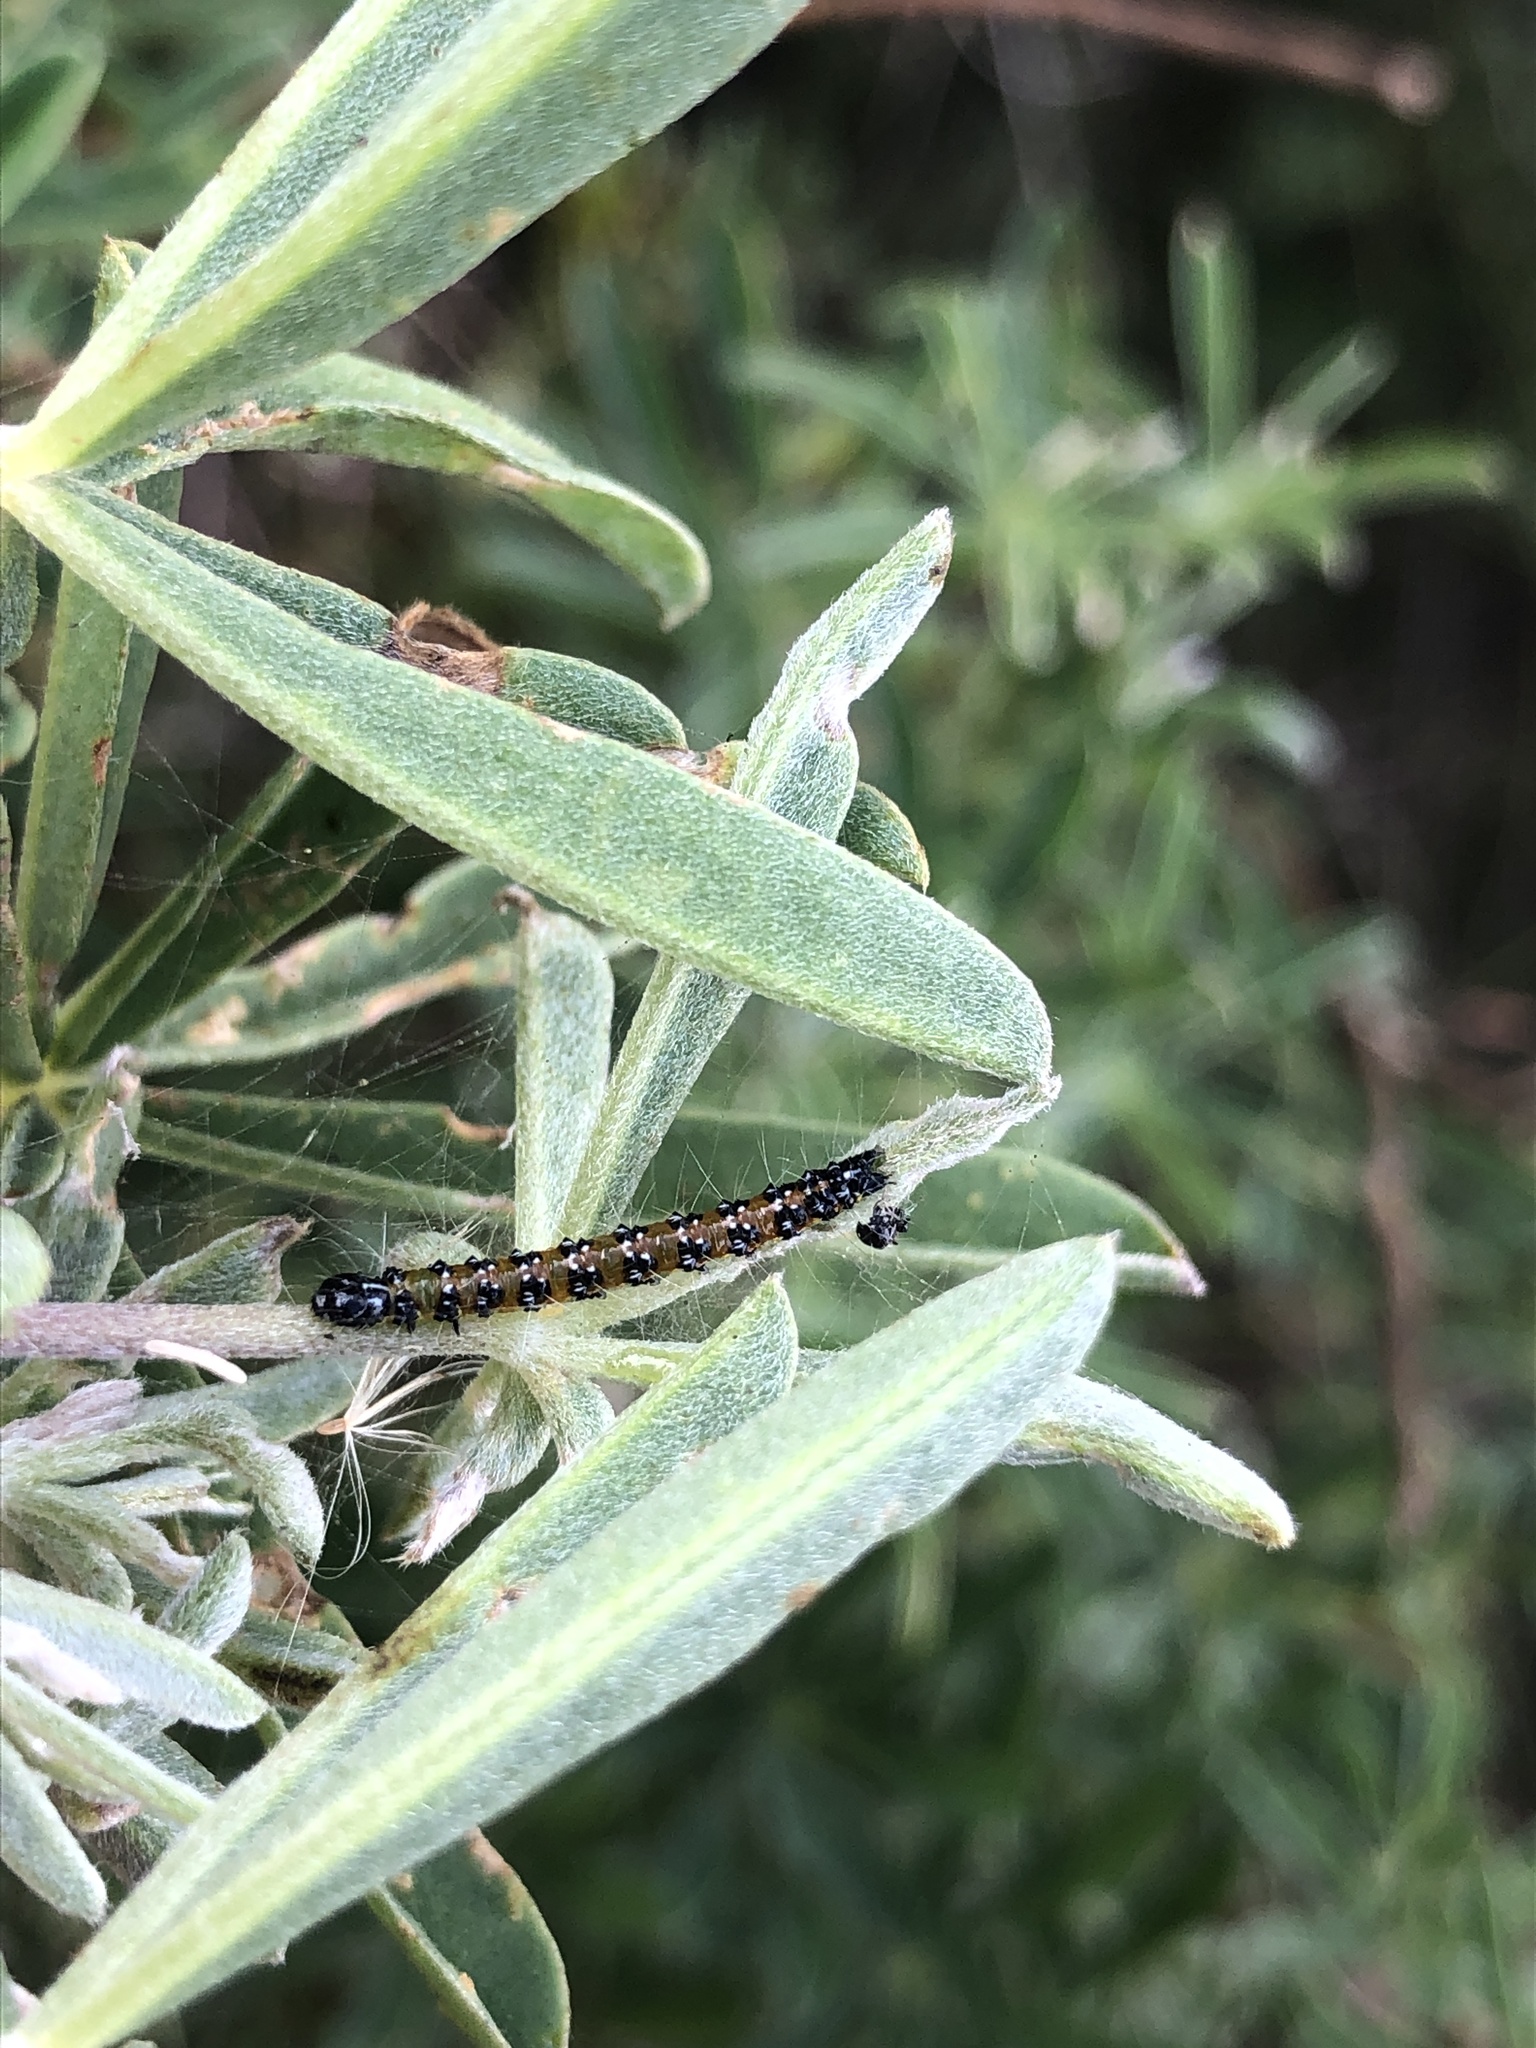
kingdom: Animalia
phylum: Arthropoda
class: Insecta
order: Lepidoptera
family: Crambidae
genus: Uresiphita
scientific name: Uresiphita reversalis
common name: Genista broom moth
